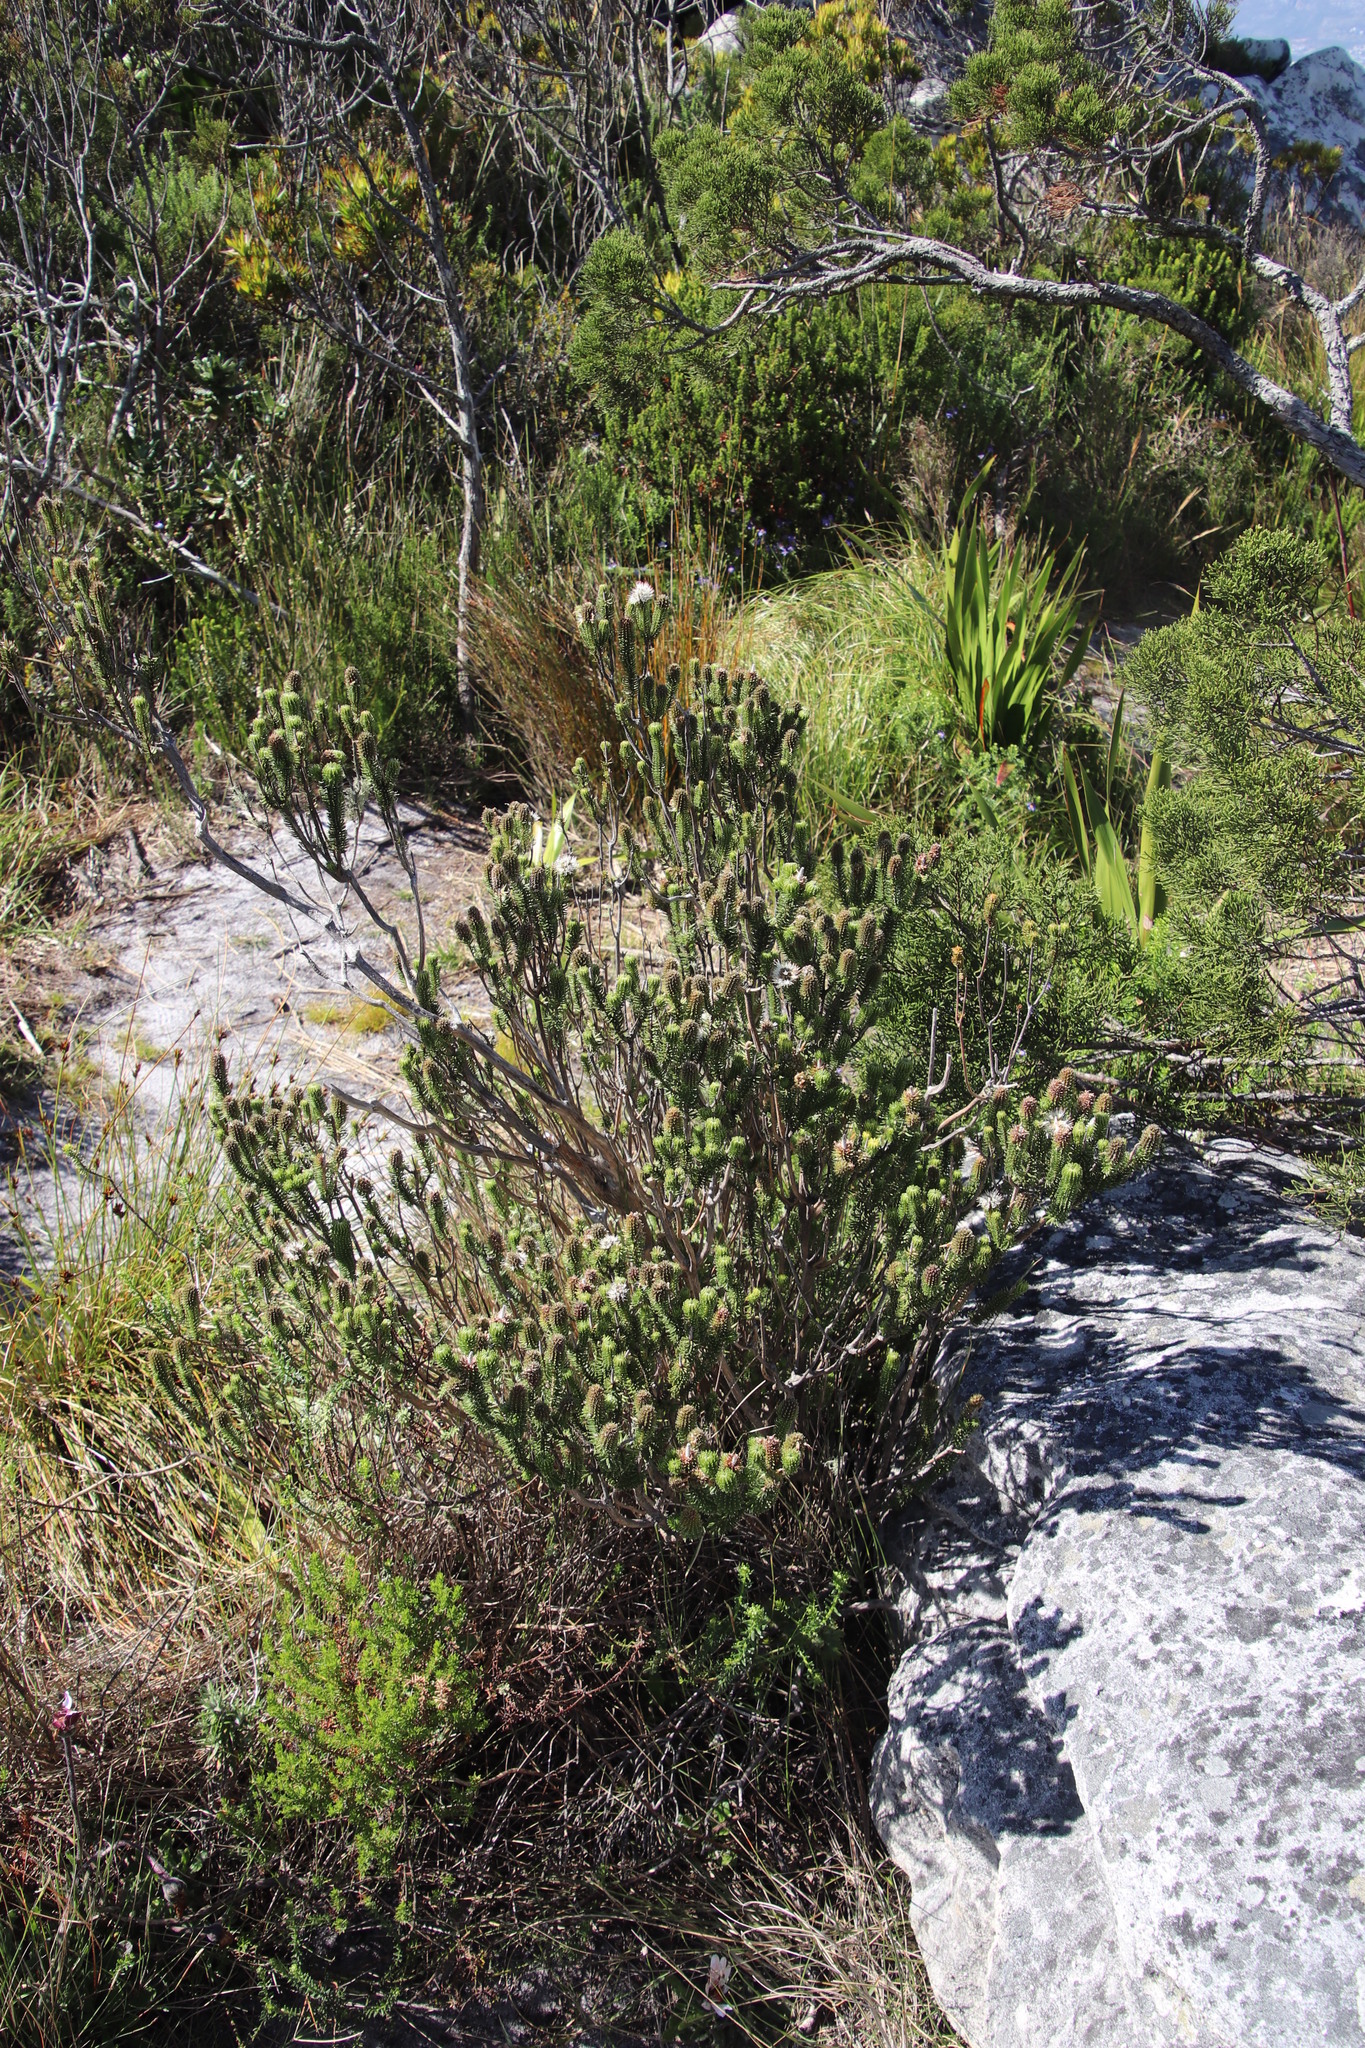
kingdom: Plantae
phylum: Tracheophyta
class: Magnoliopsida
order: Lamiales
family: Stilbaceae
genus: Stilbe
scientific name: Stilbe vestita
